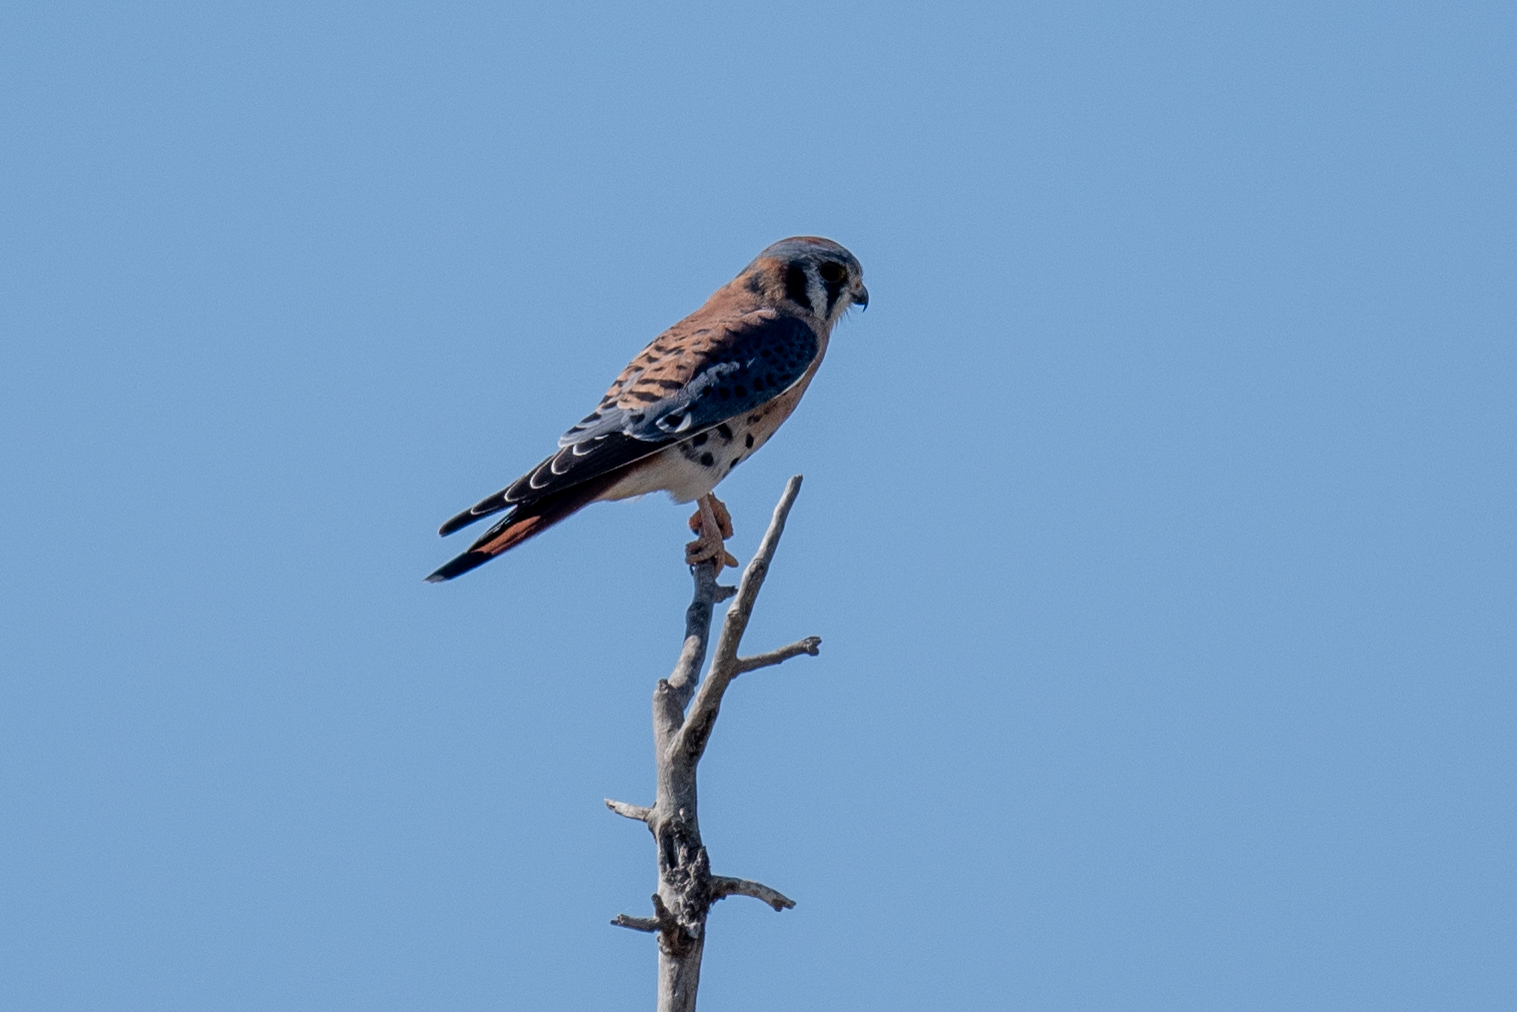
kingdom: Animalia
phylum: Chordata
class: Aves
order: Falconiformes
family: Falconidae
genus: Falco
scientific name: Falco sparverius
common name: American kestrel
